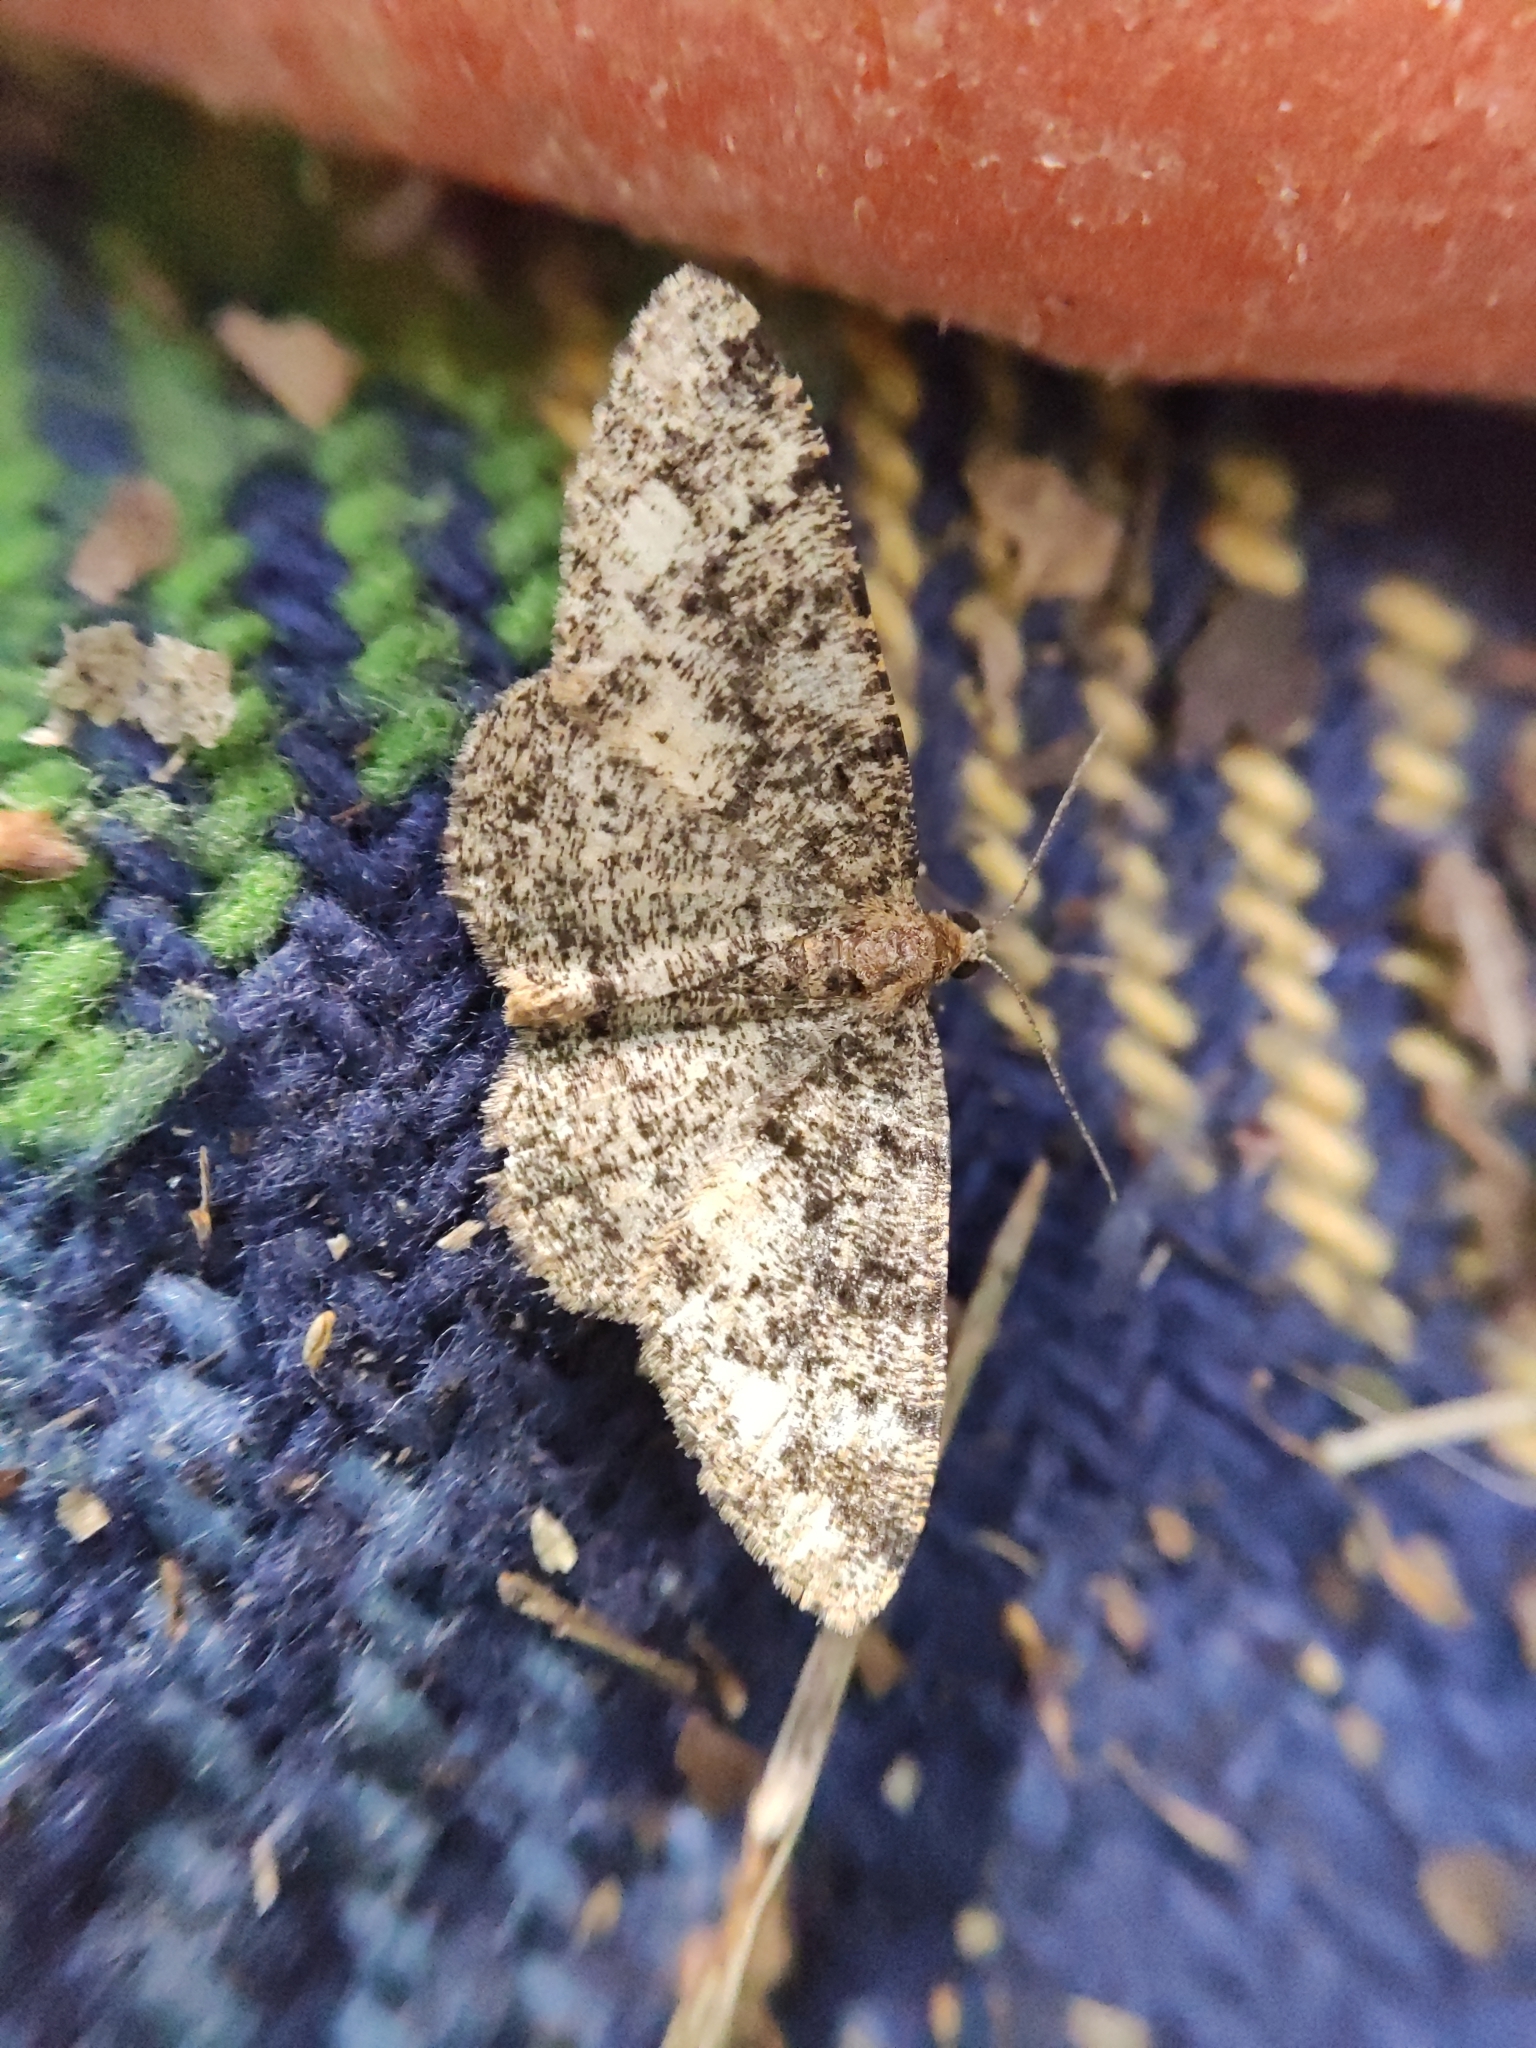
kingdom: Animalia
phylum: Arthropoda
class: Insecta
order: Lepidoptera
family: Geometridae
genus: Parectropis
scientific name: Parectropis similaria
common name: Brindled white-spot
